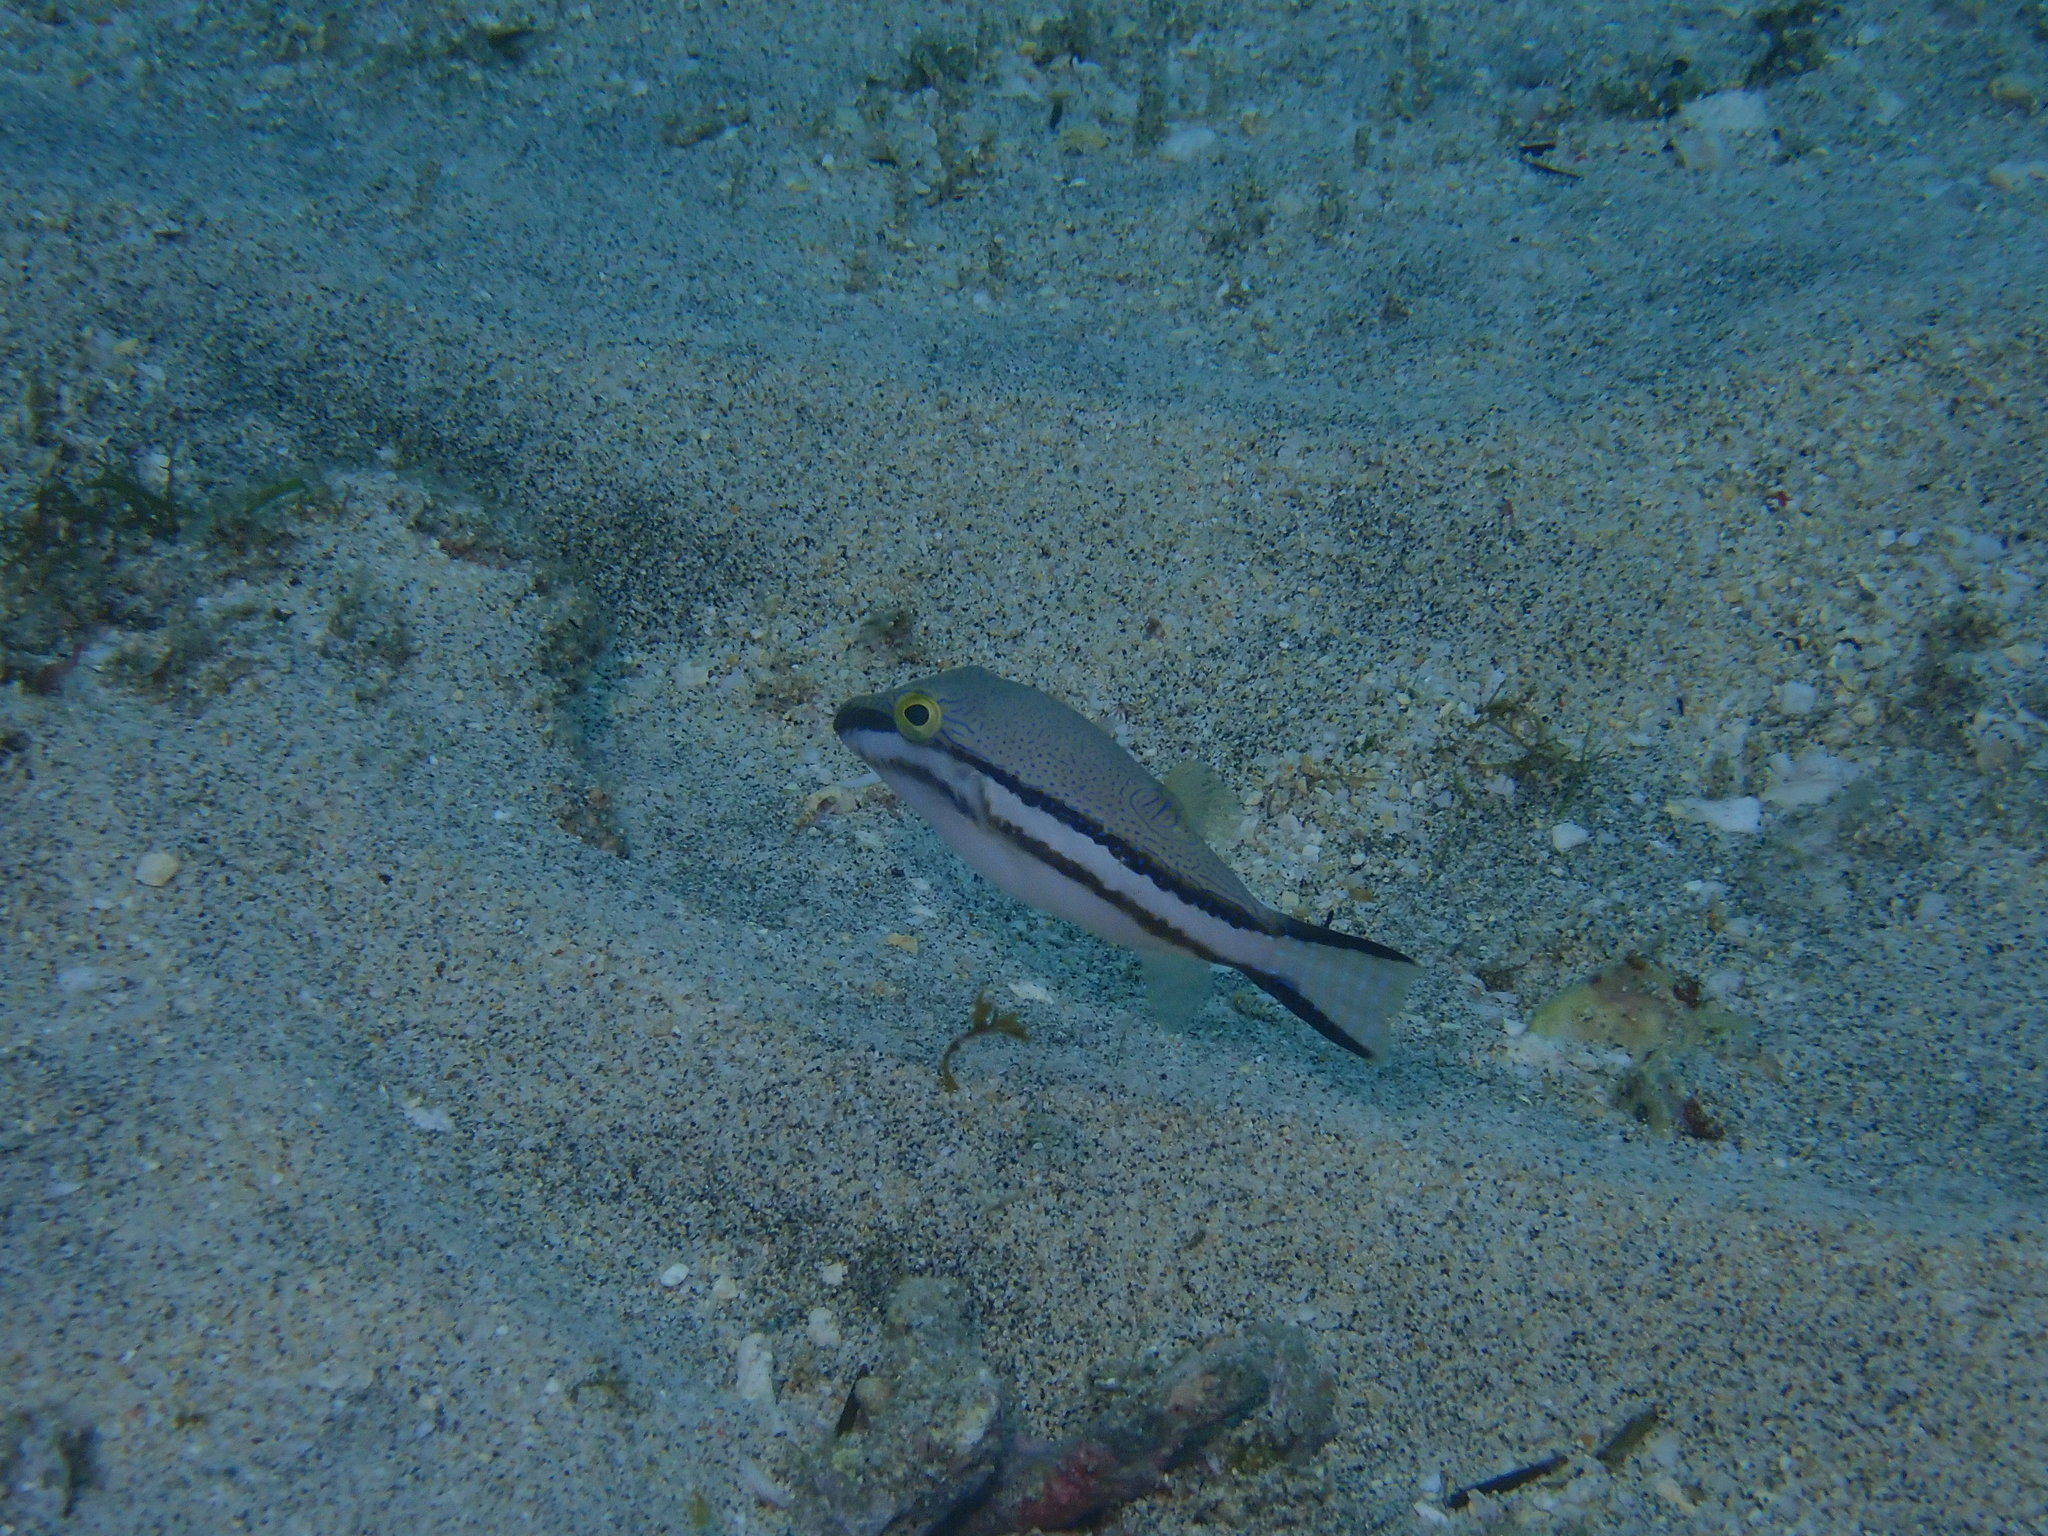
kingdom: Animalia
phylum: Chordata
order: Tetraodontiformes
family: Tetraodontidae
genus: Canthigaster
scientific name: Canthigaster callisterna
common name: Clown toado
